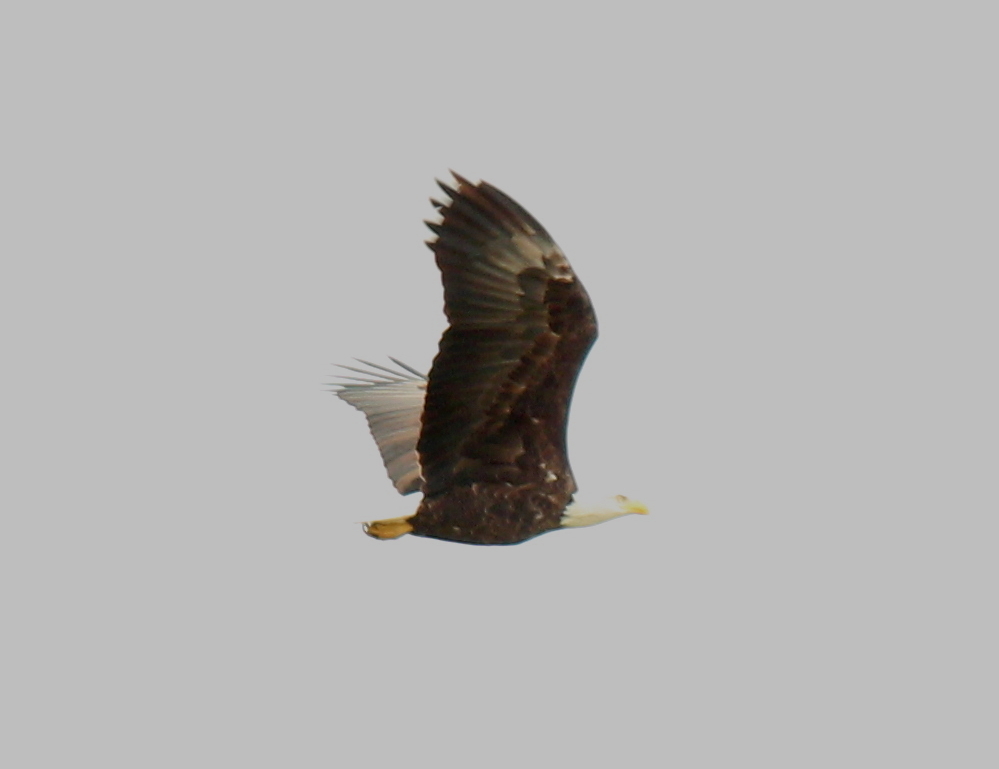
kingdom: Animalia
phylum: Chordata
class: Aves
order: Accipitriformes
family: Accipitridae
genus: Haliaeetus
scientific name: Haliaeetus leucocephalus
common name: Bald eagle
